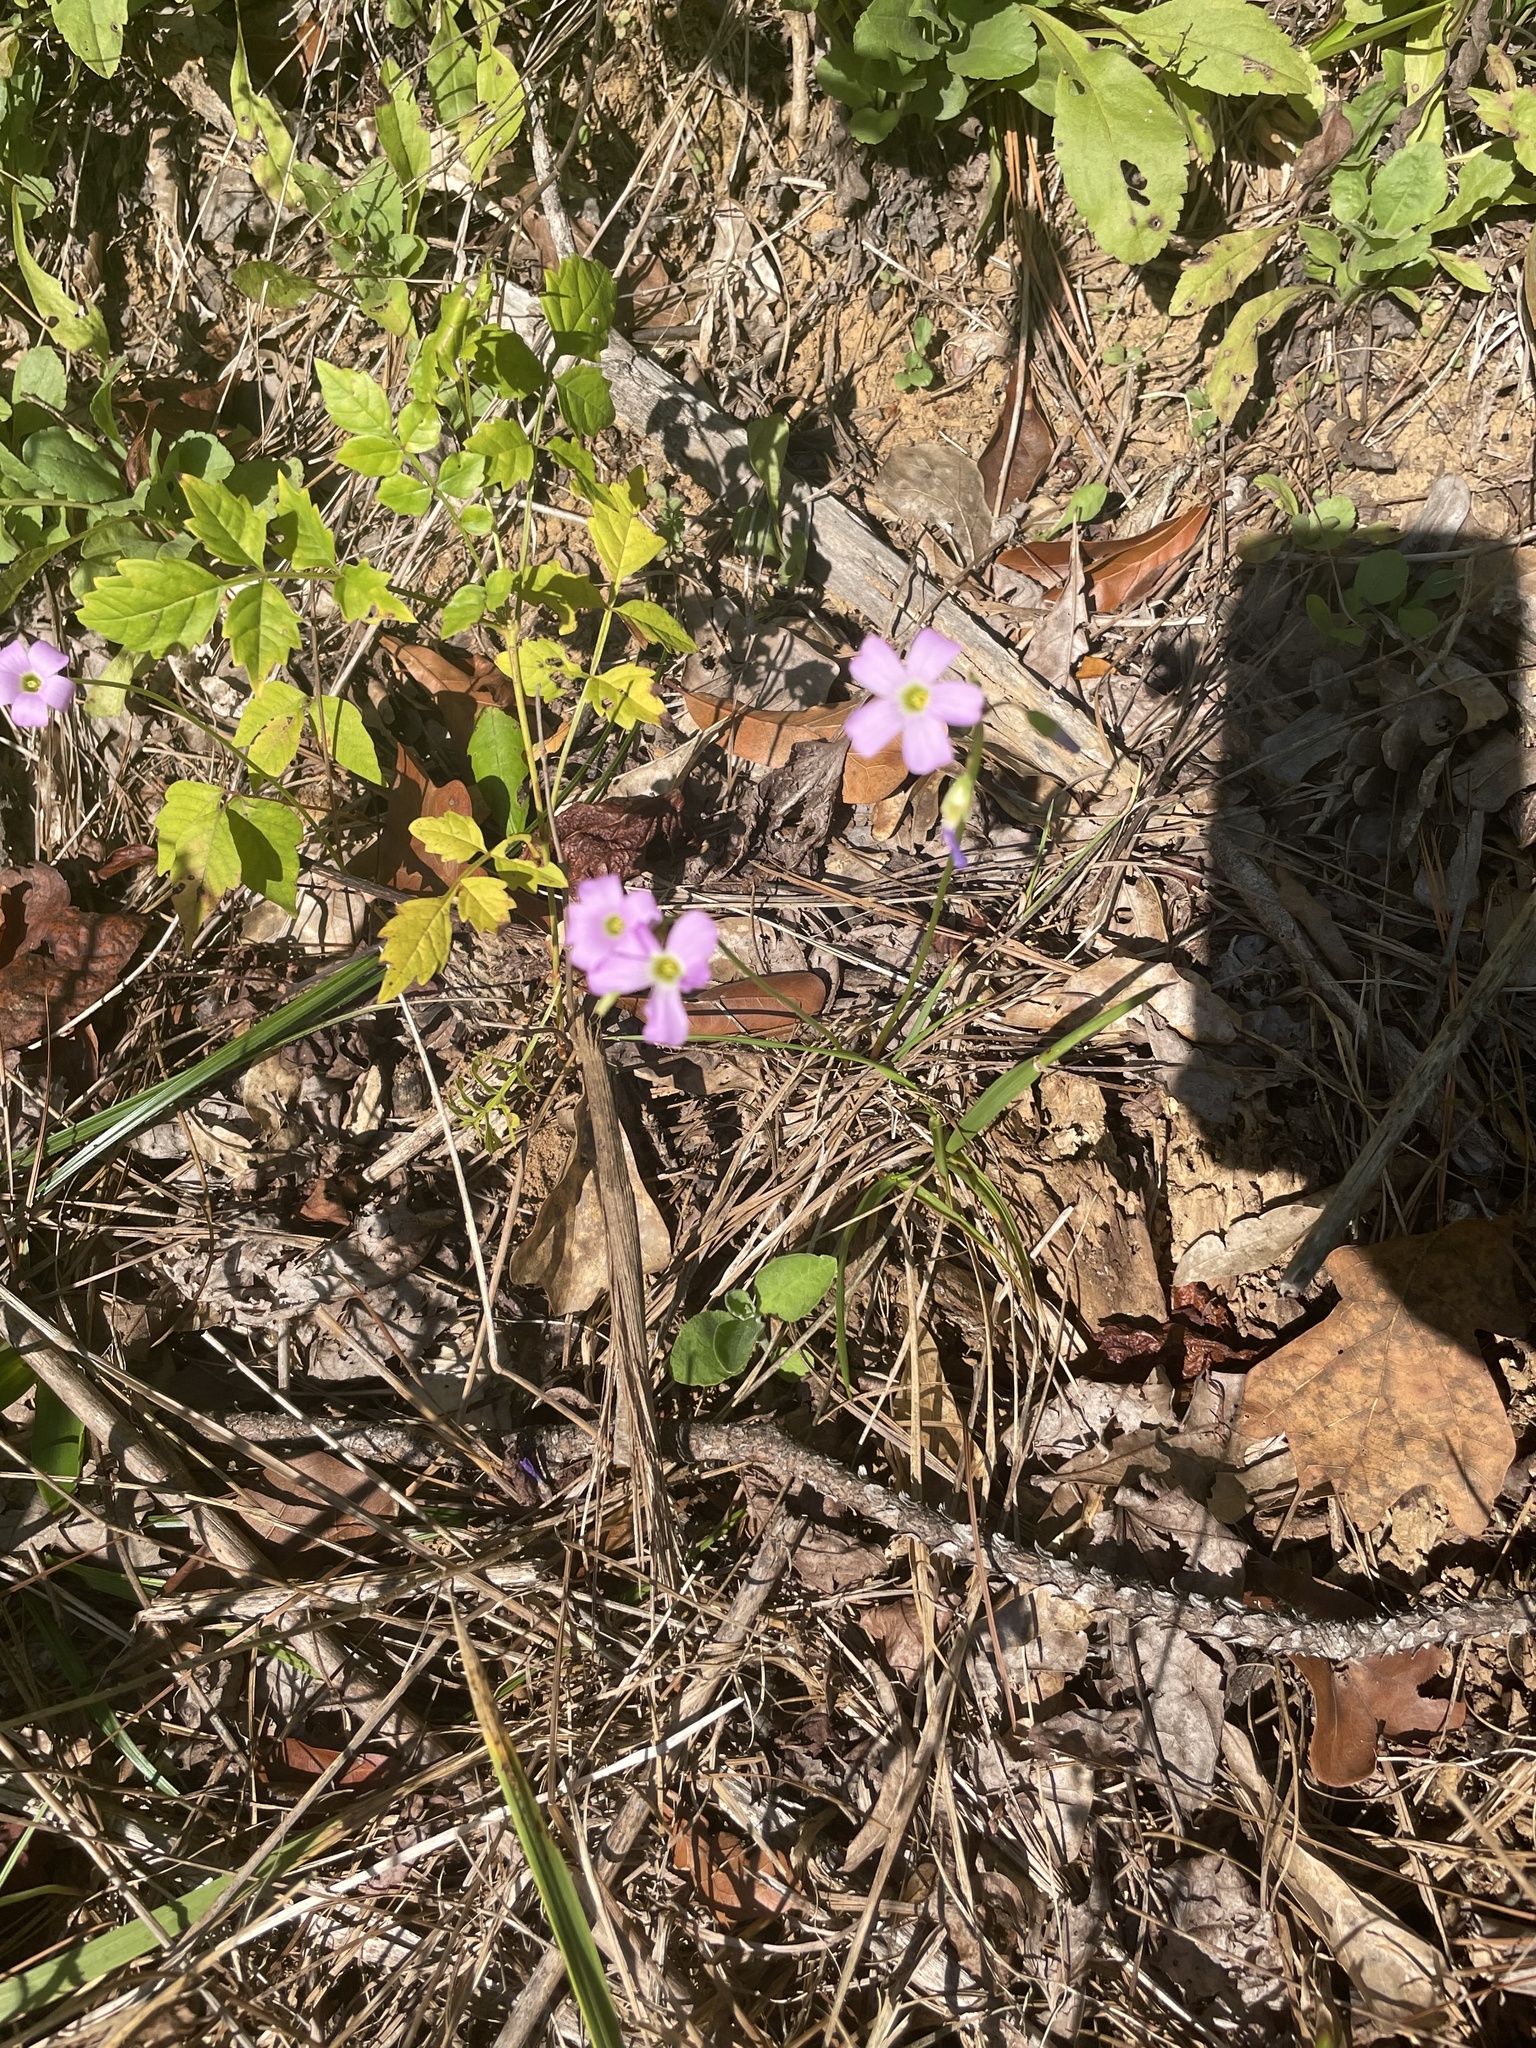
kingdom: Plantae
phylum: Tracheophyta
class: Magnoliopsida
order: Oxalidales
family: Oxalidaceae
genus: Oxalis
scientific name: Oxalis violacea
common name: Violet wood-sorrel
